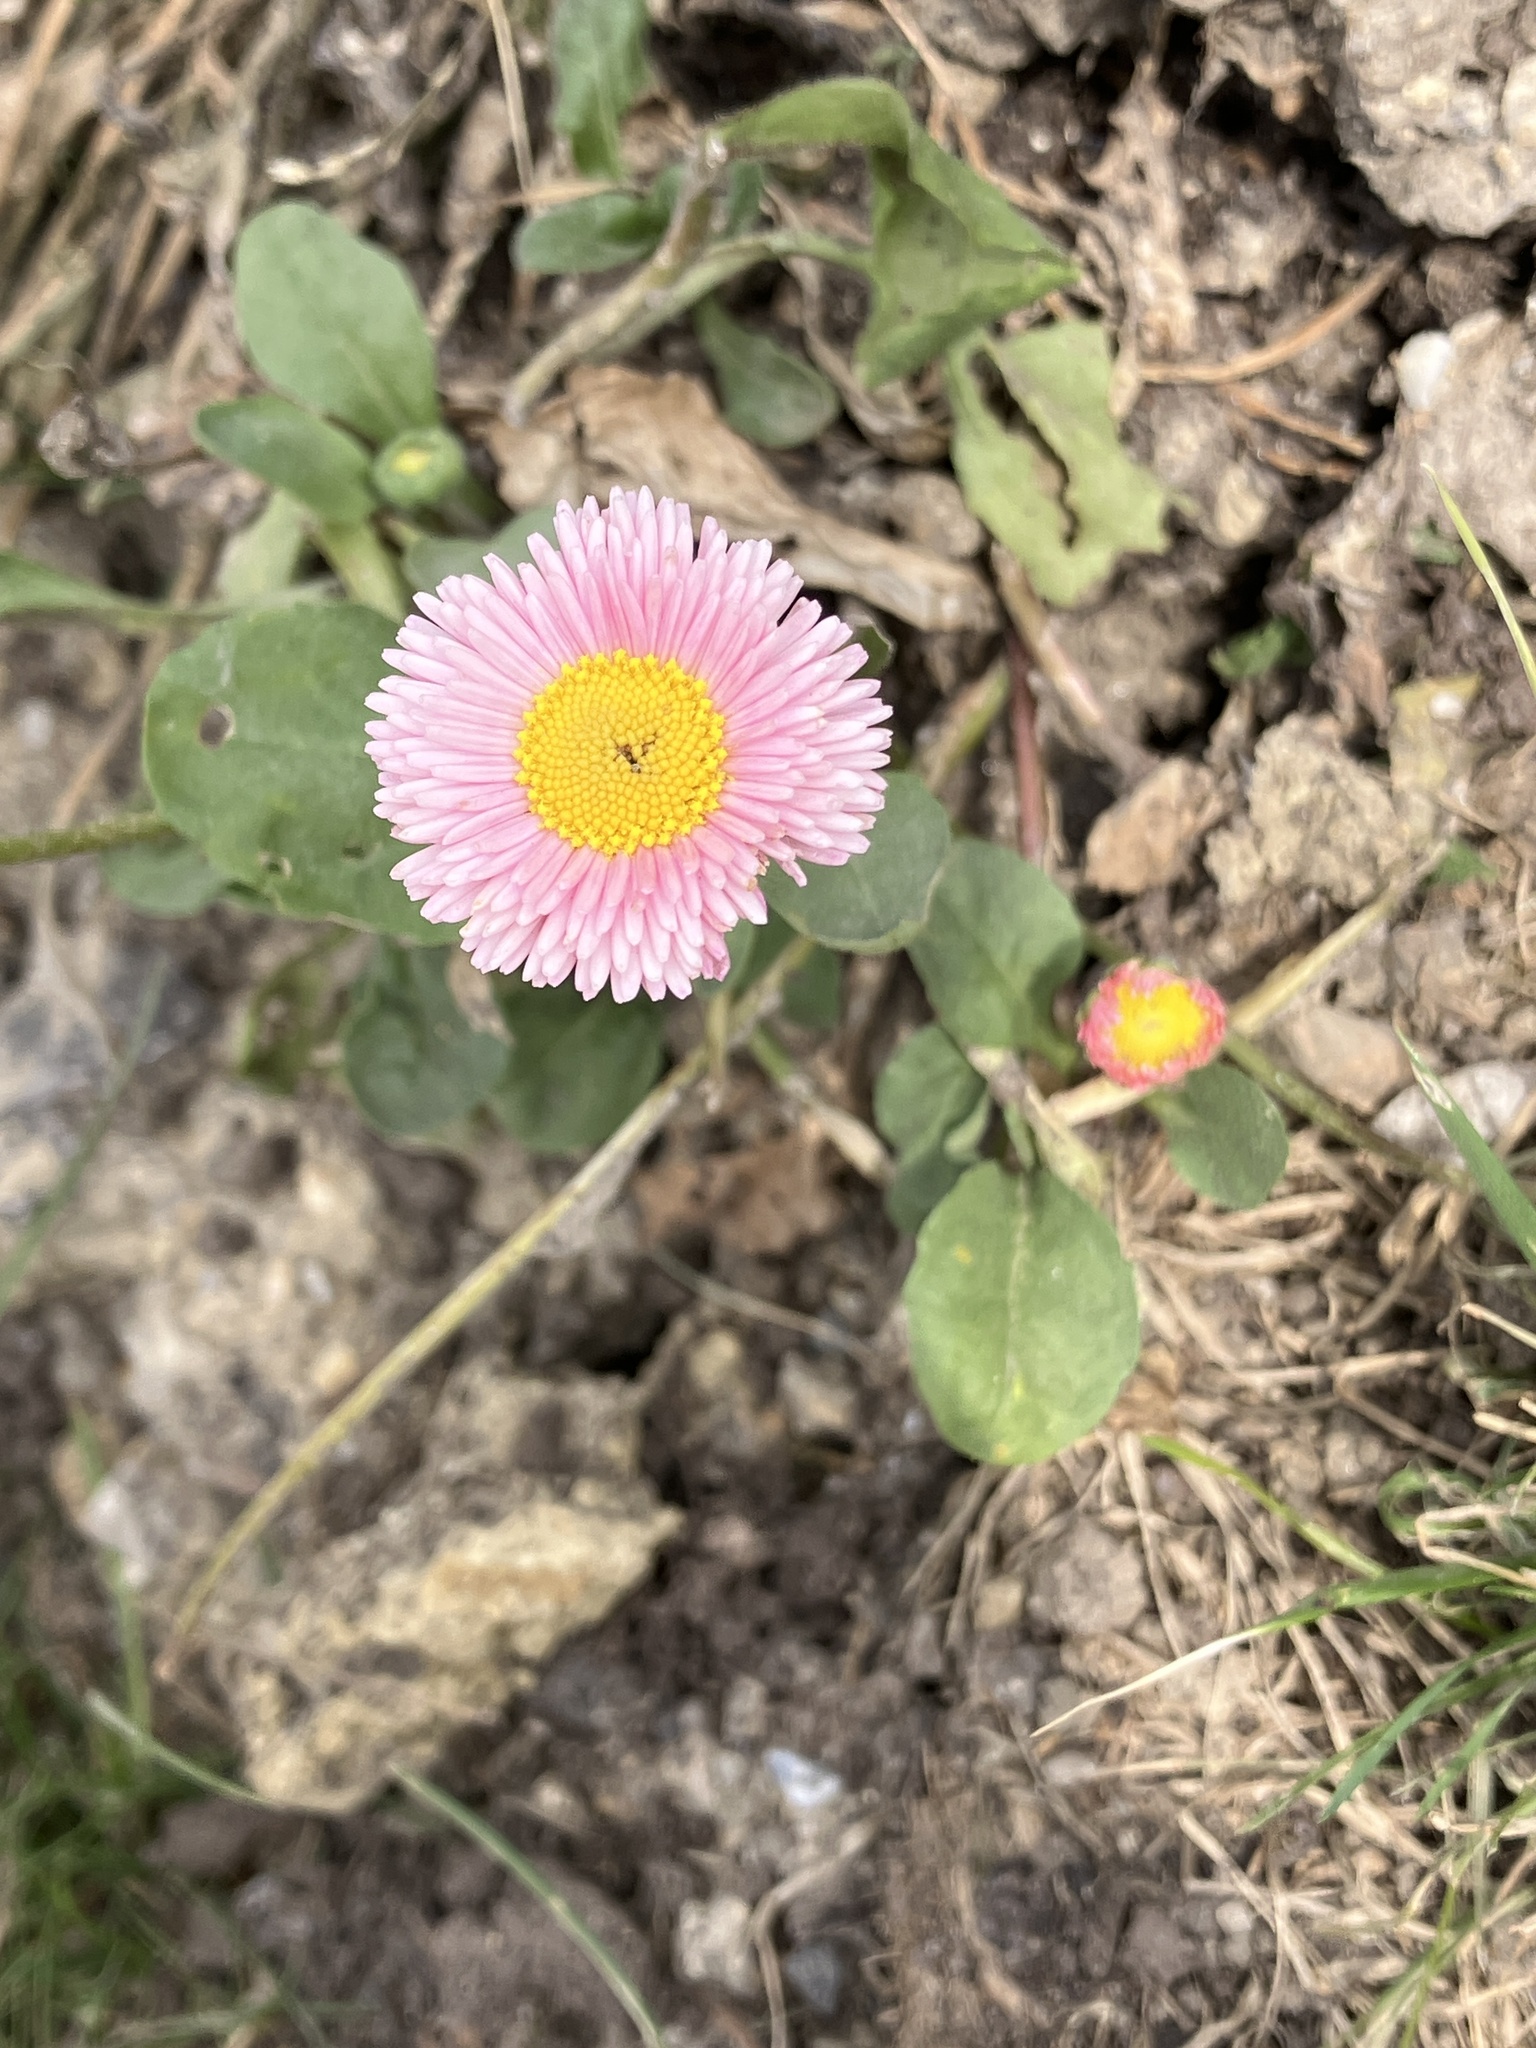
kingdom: Plantae
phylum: Tracheophyta
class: Magnoliopsida
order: Asterales
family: Asteraceae
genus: Bellis
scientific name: Bellis perennis
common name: Lawndaisy
